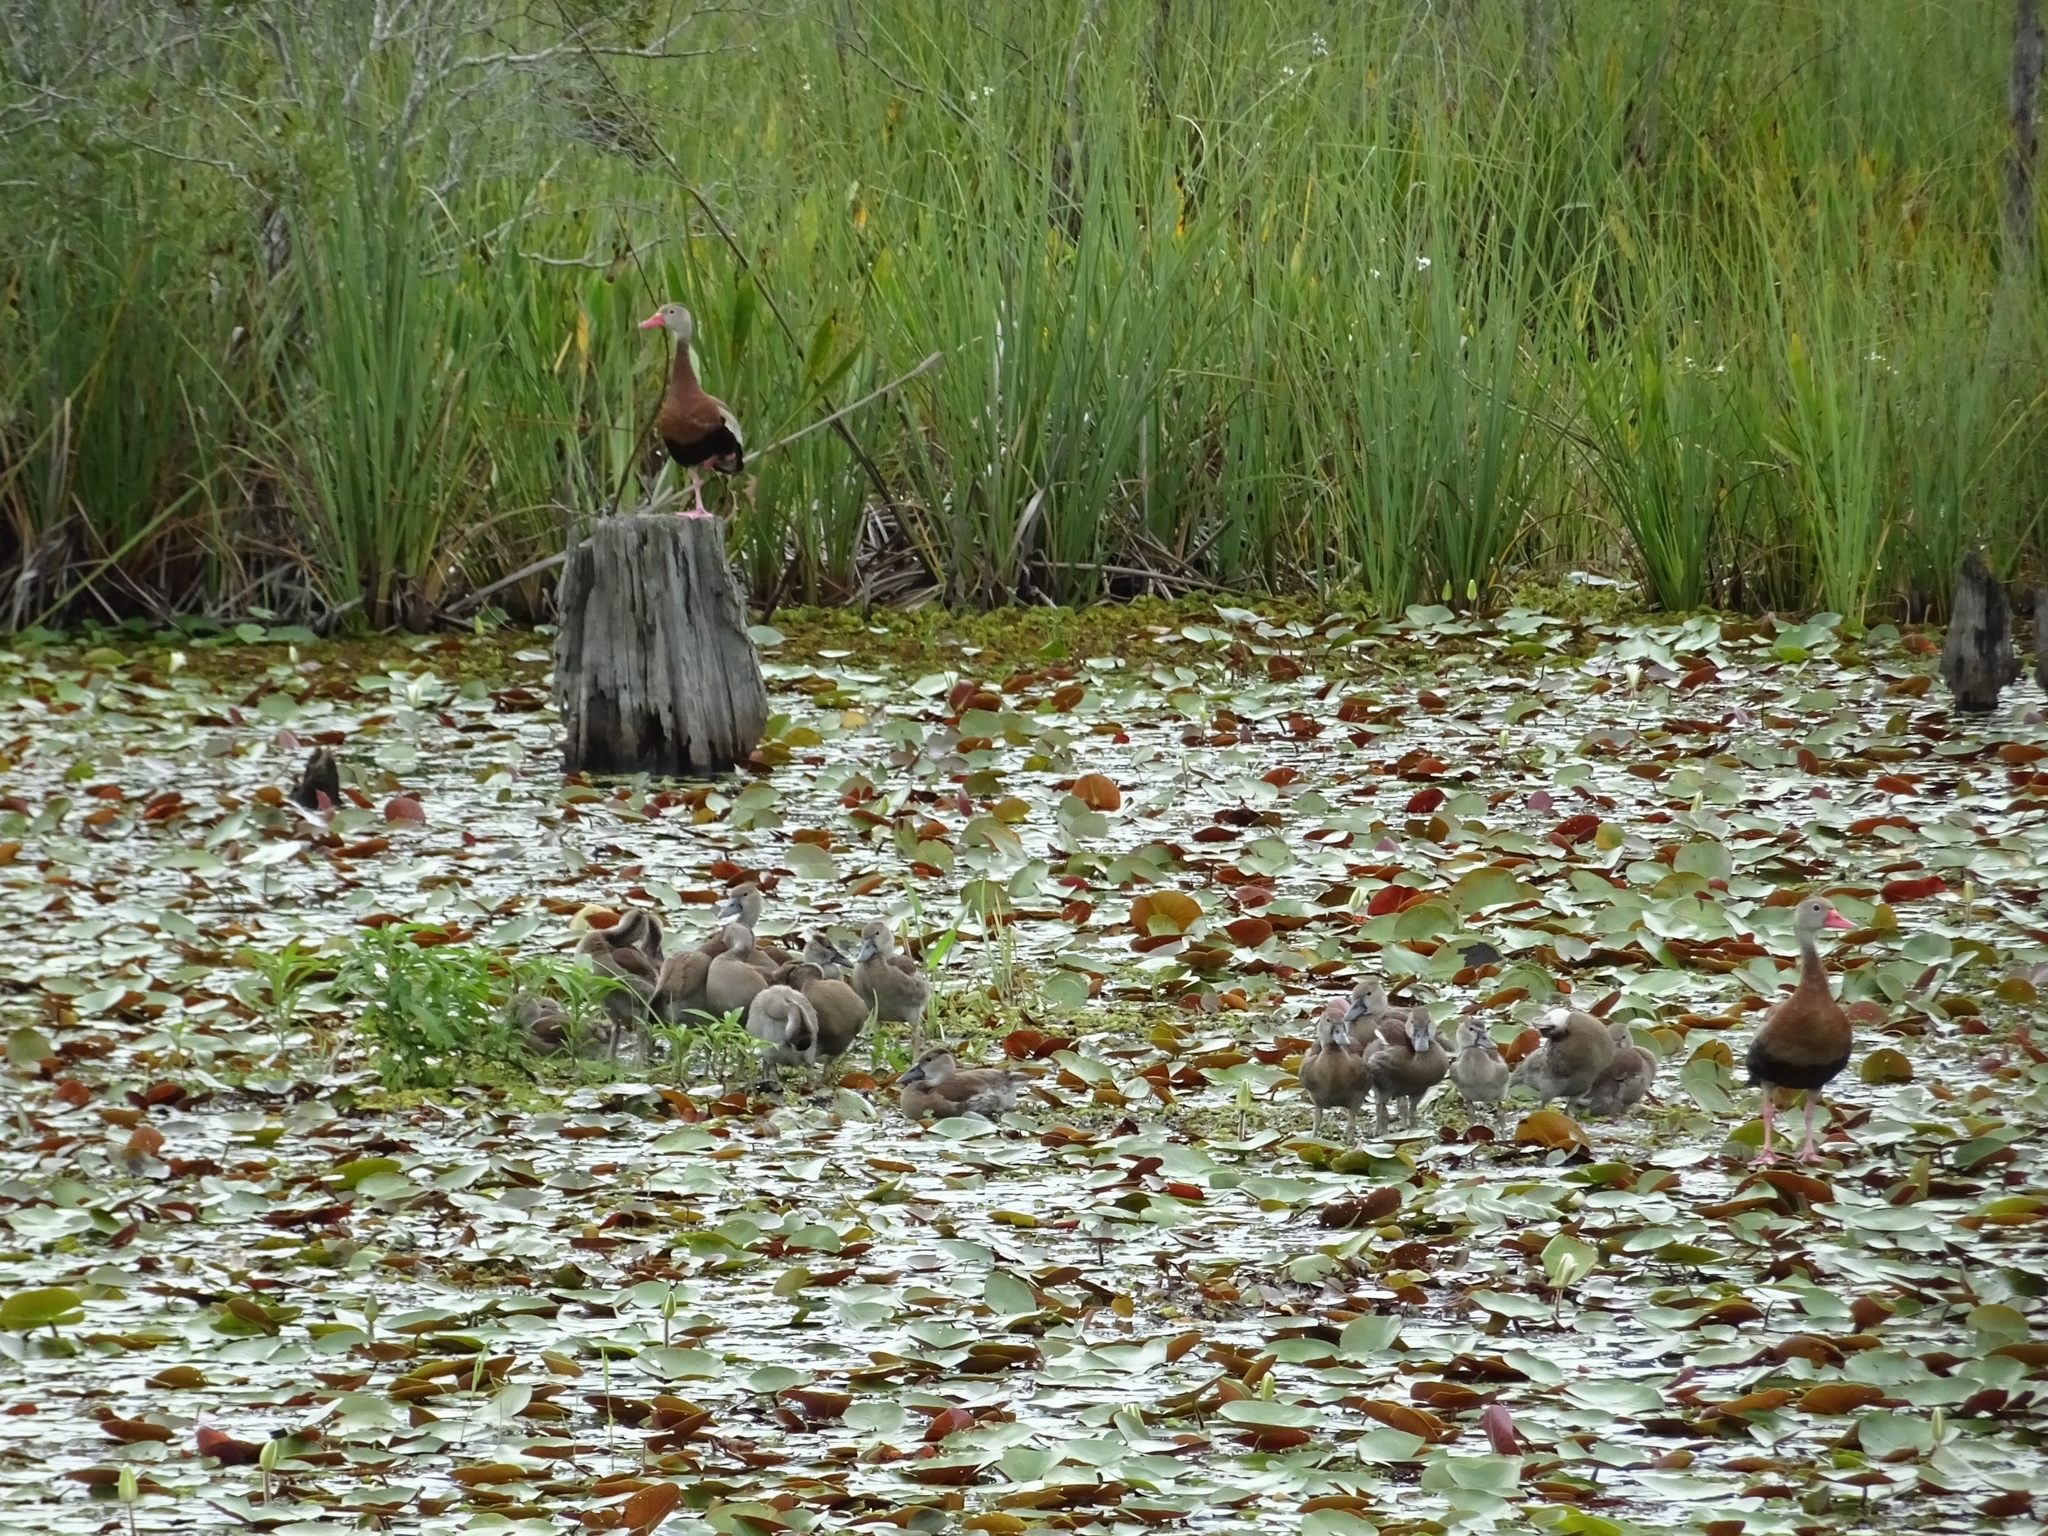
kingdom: Animalia
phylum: Chordata
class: Aves
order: Anseriformes
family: Anatidae
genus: Dendrocygna
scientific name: Dendrocygna autumnalis
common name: Black-bellied whistling duck
